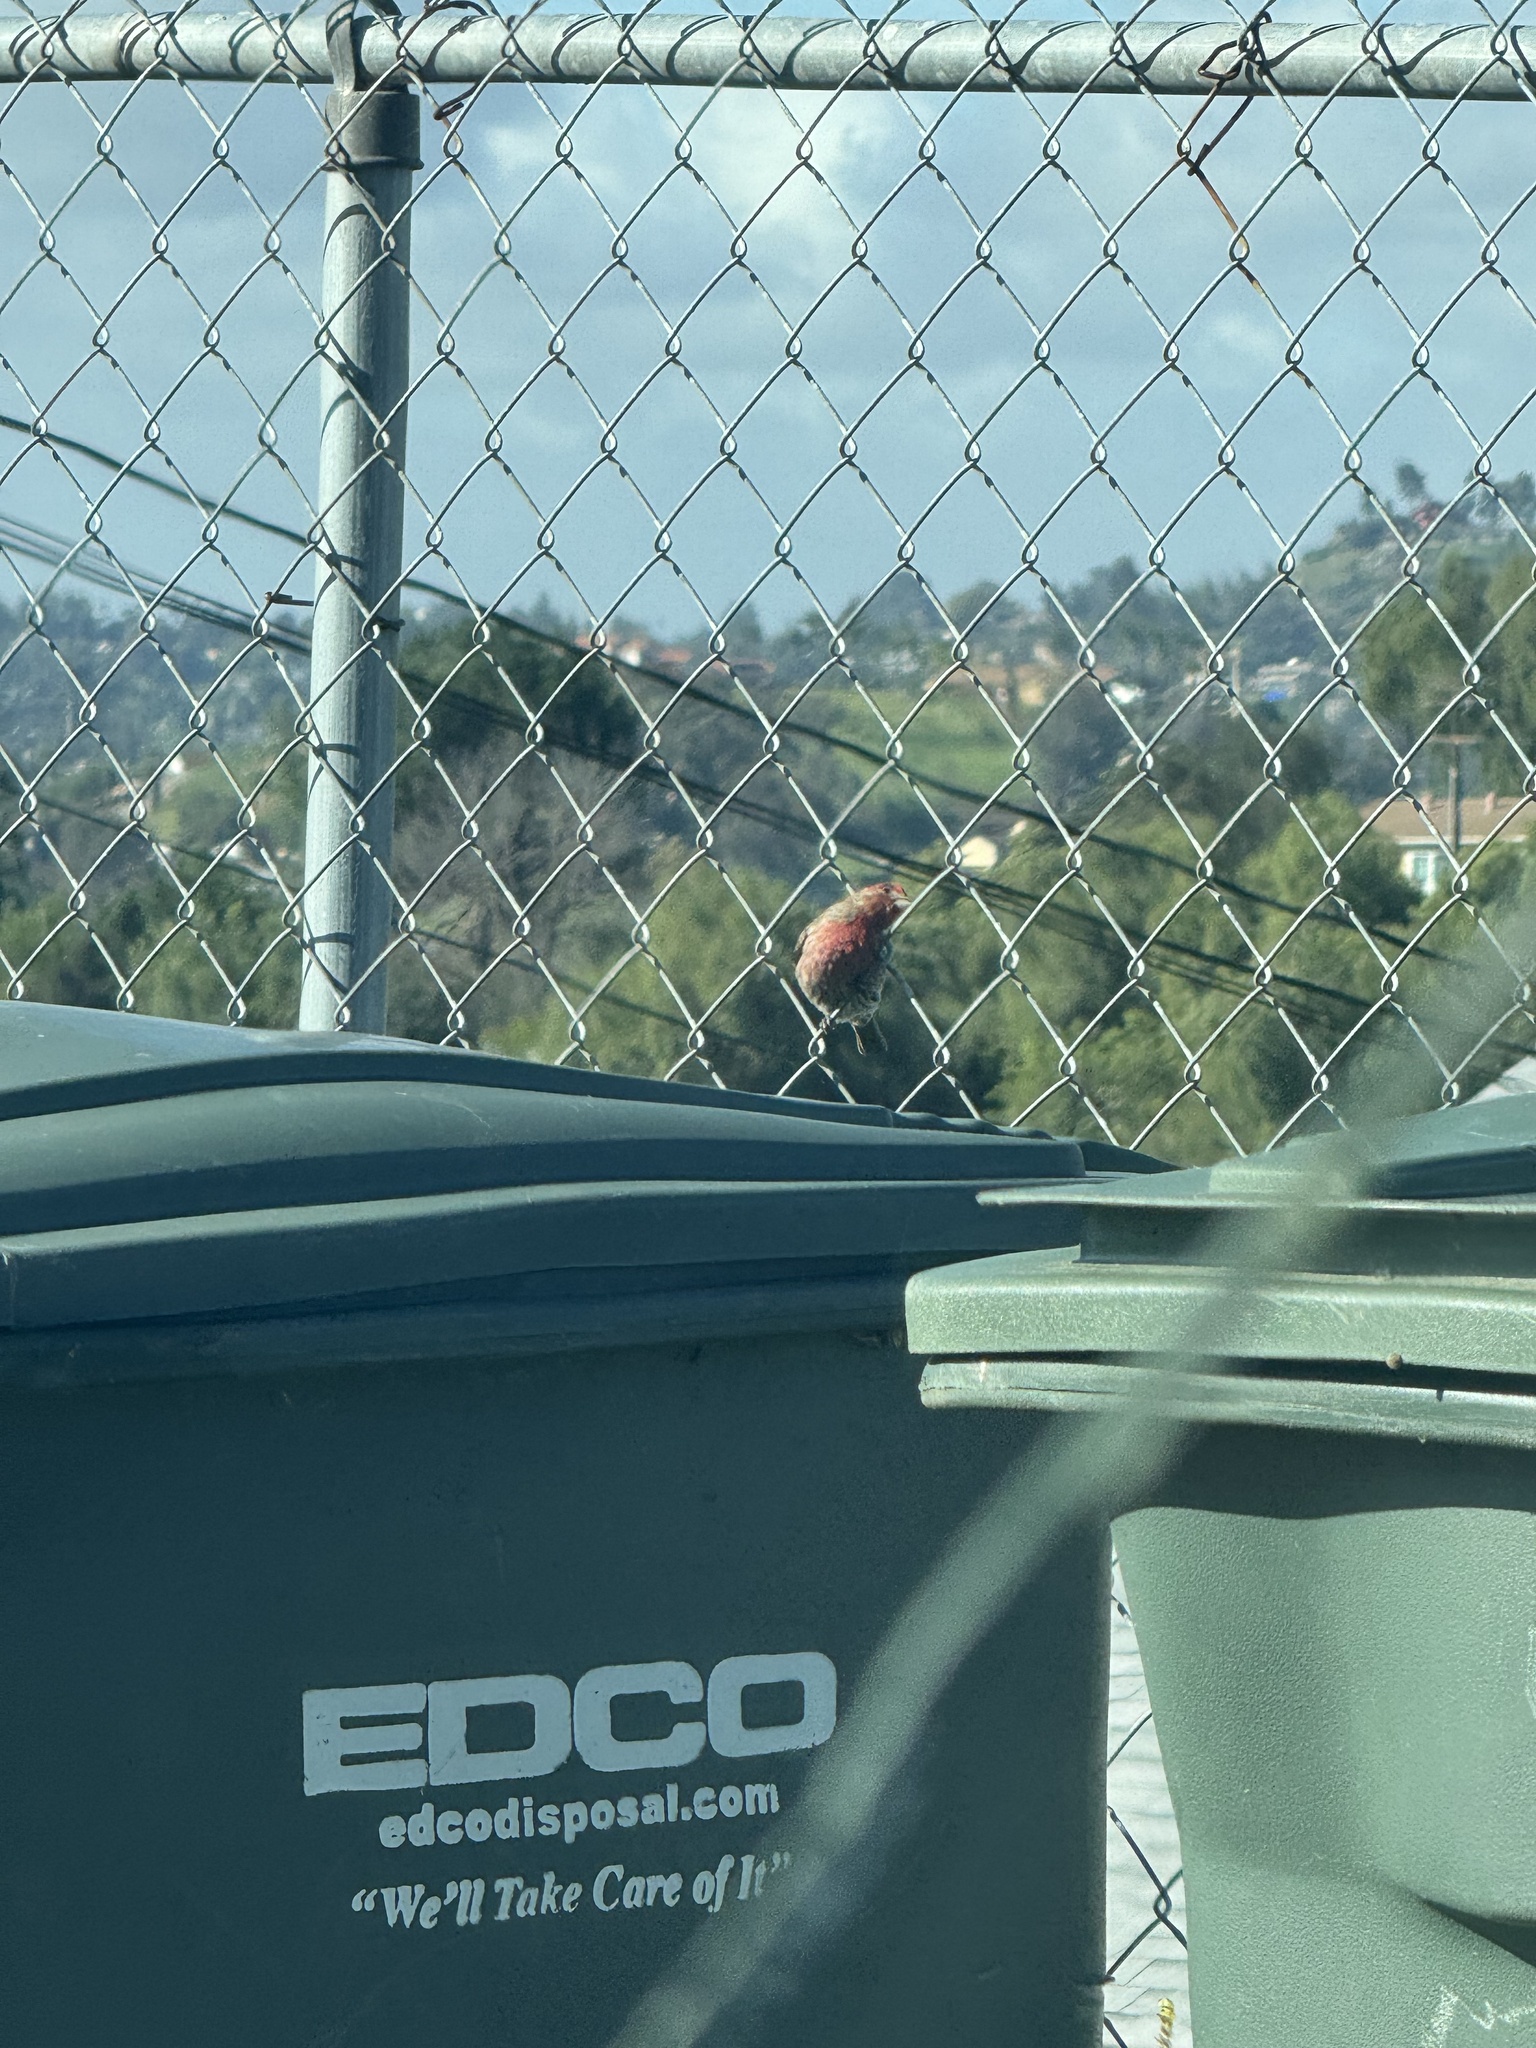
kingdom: Animalia
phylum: Chordata
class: Aves
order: Passeriformes
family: Fringillidae
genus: Haemorhous
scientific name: Haemorhous mexicanus
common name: House finch
